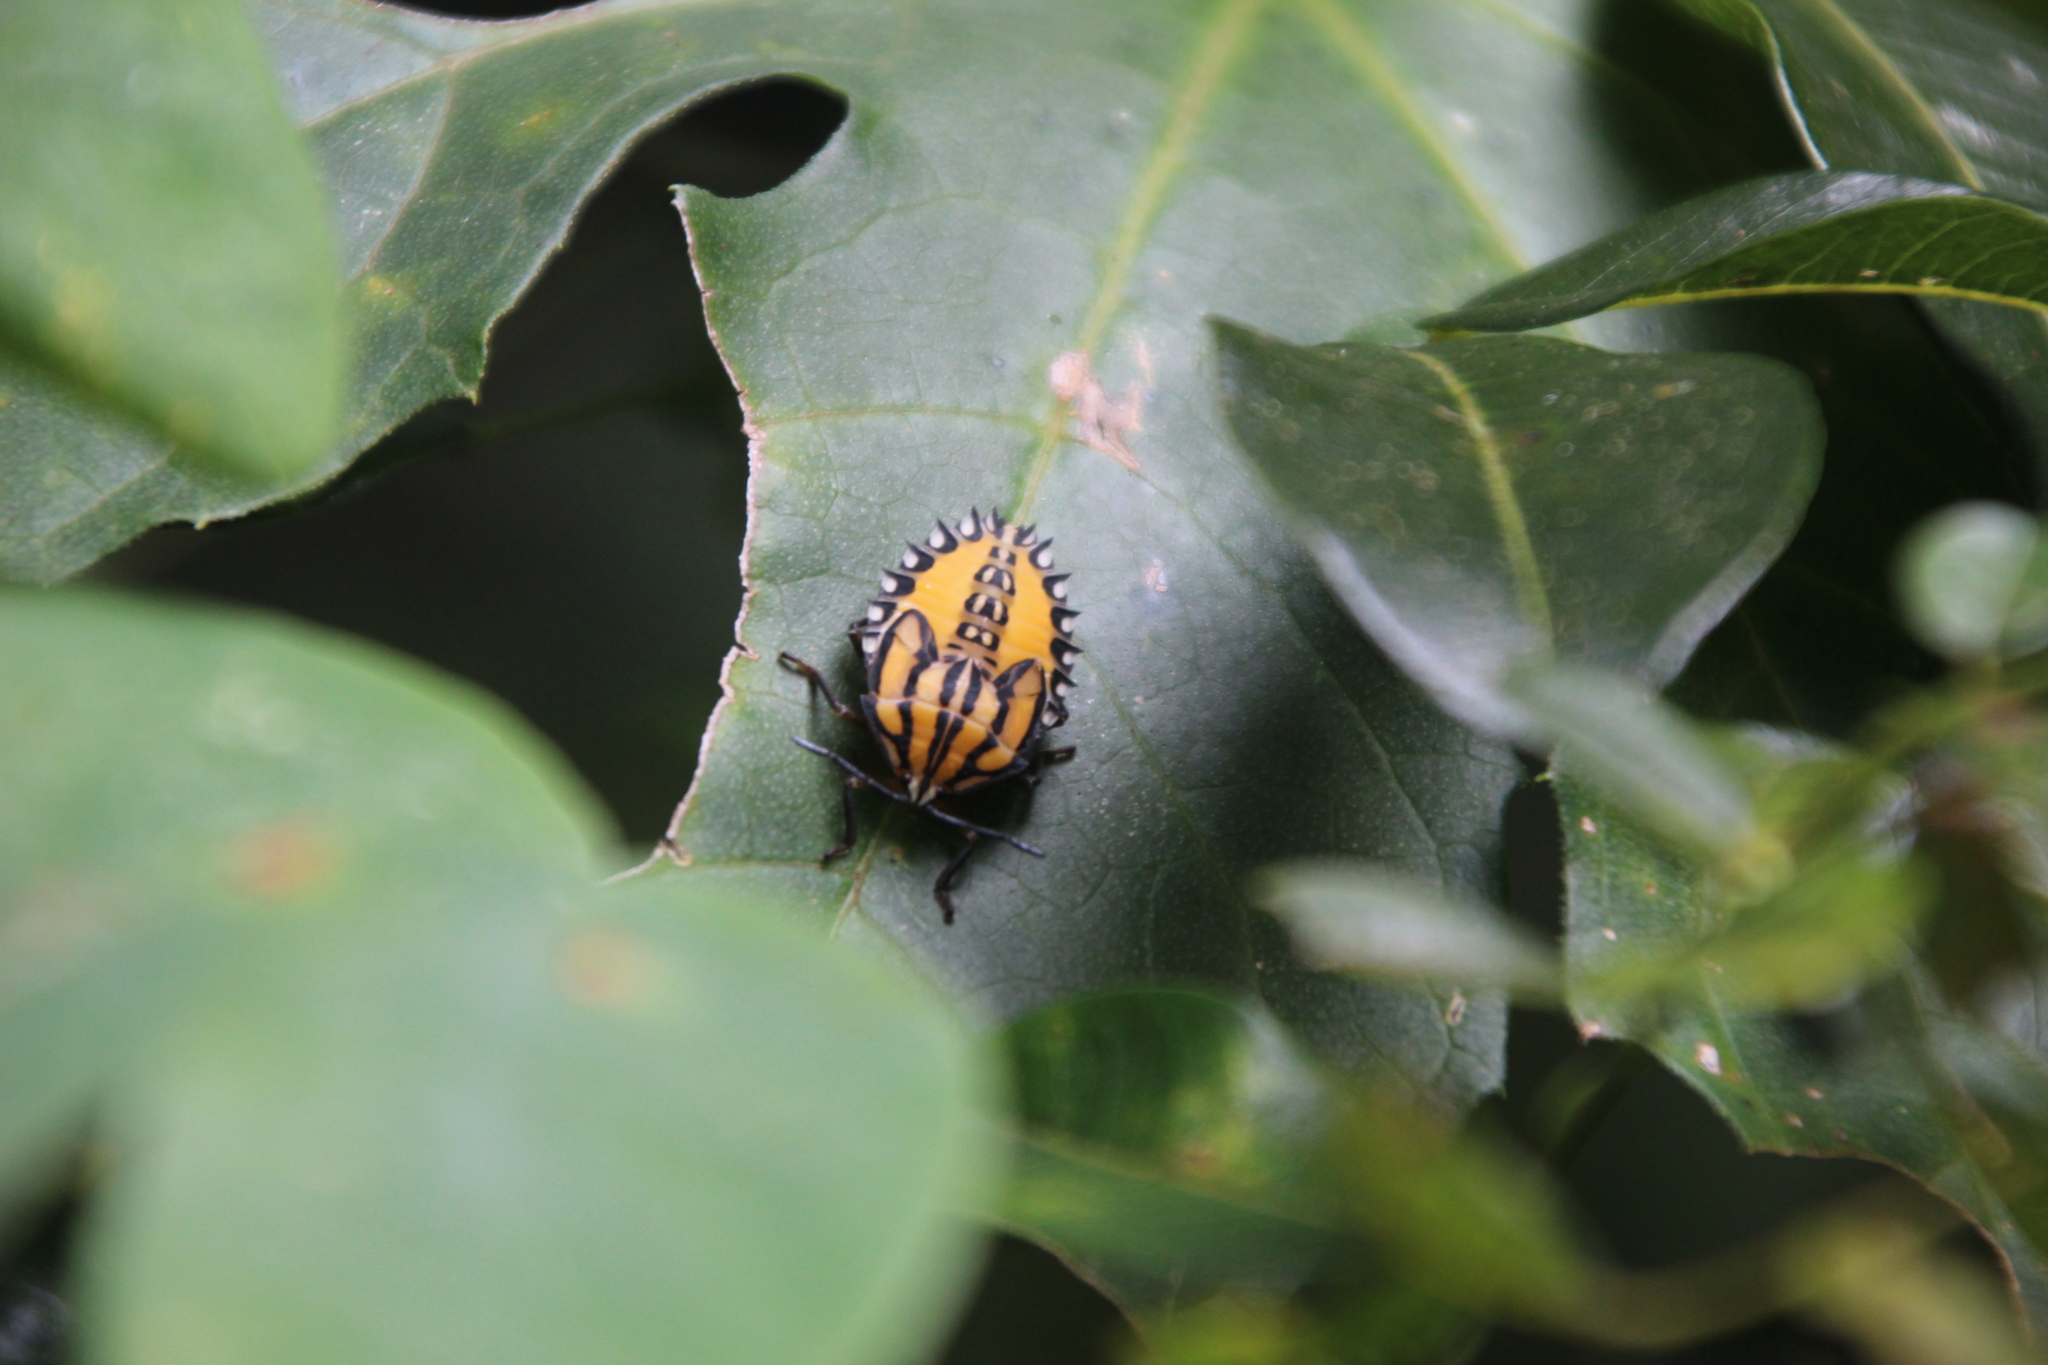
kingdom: Animalia
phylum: Arthropoda
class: Insecta
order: Hemiptera
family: Tessaratomidae
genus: Piezosternum
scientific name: Piezosternum calidum
